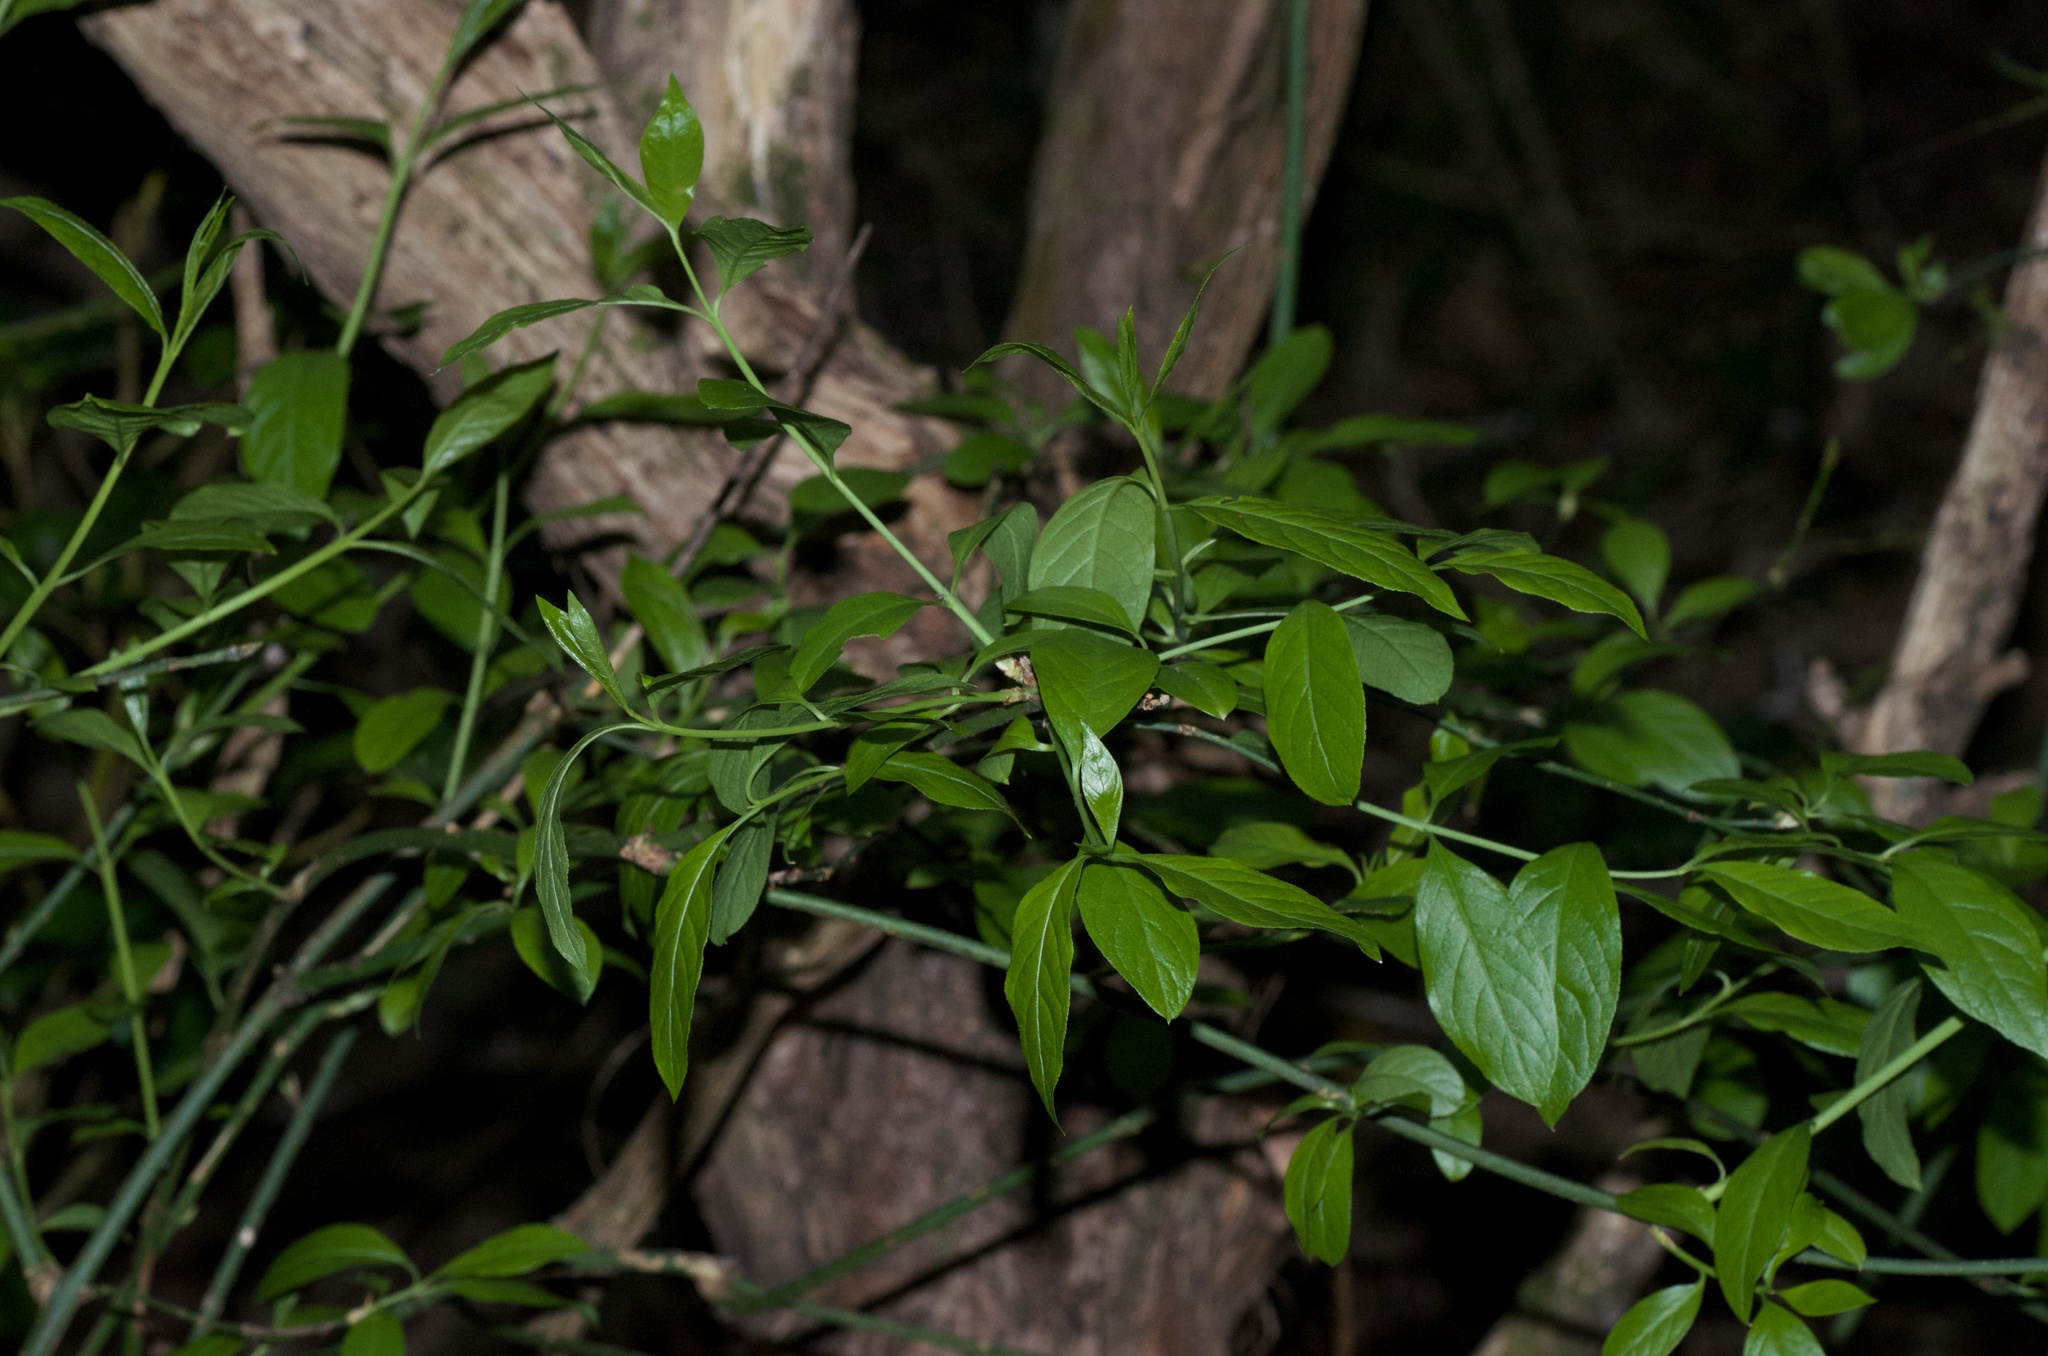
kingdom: Plantae
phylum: Tracheophyta
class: Magnoliopsida
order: Celastrales
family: Celastraceae
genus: Euonymus
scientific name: Euonymus europaeus
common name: Spindle
